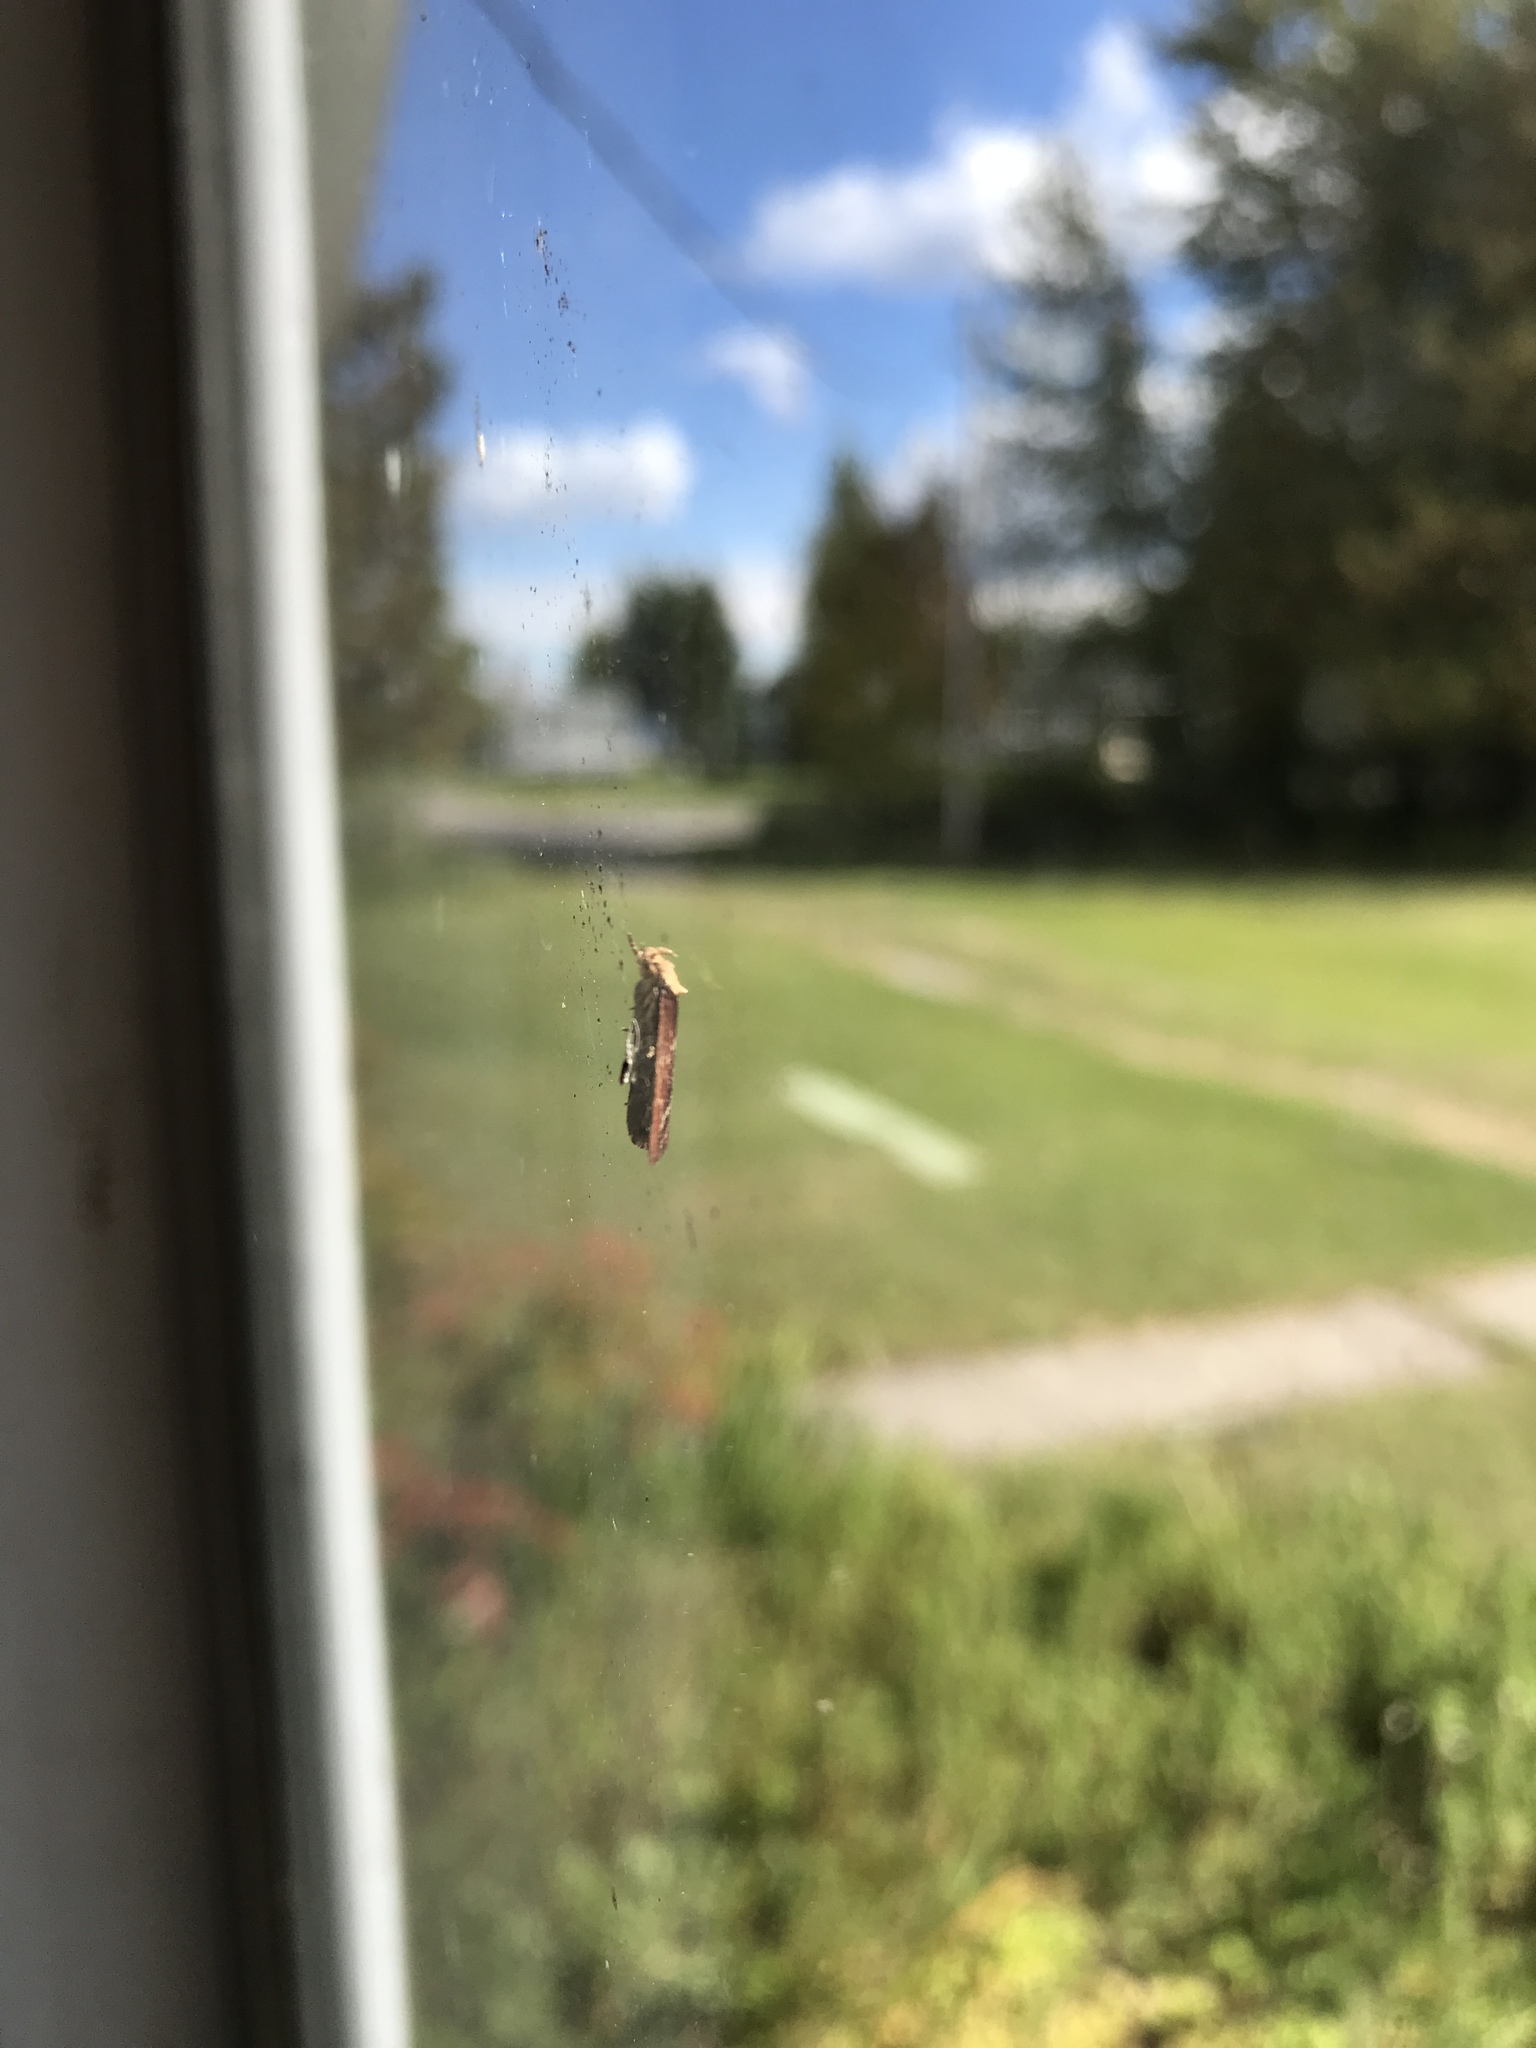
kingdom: Animalia
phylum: Arthropoda
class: Insecta
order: Lepidoptera
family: Depressariidae
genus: Depressaria
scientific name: Depressaria depressana
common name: Lost flat-body
